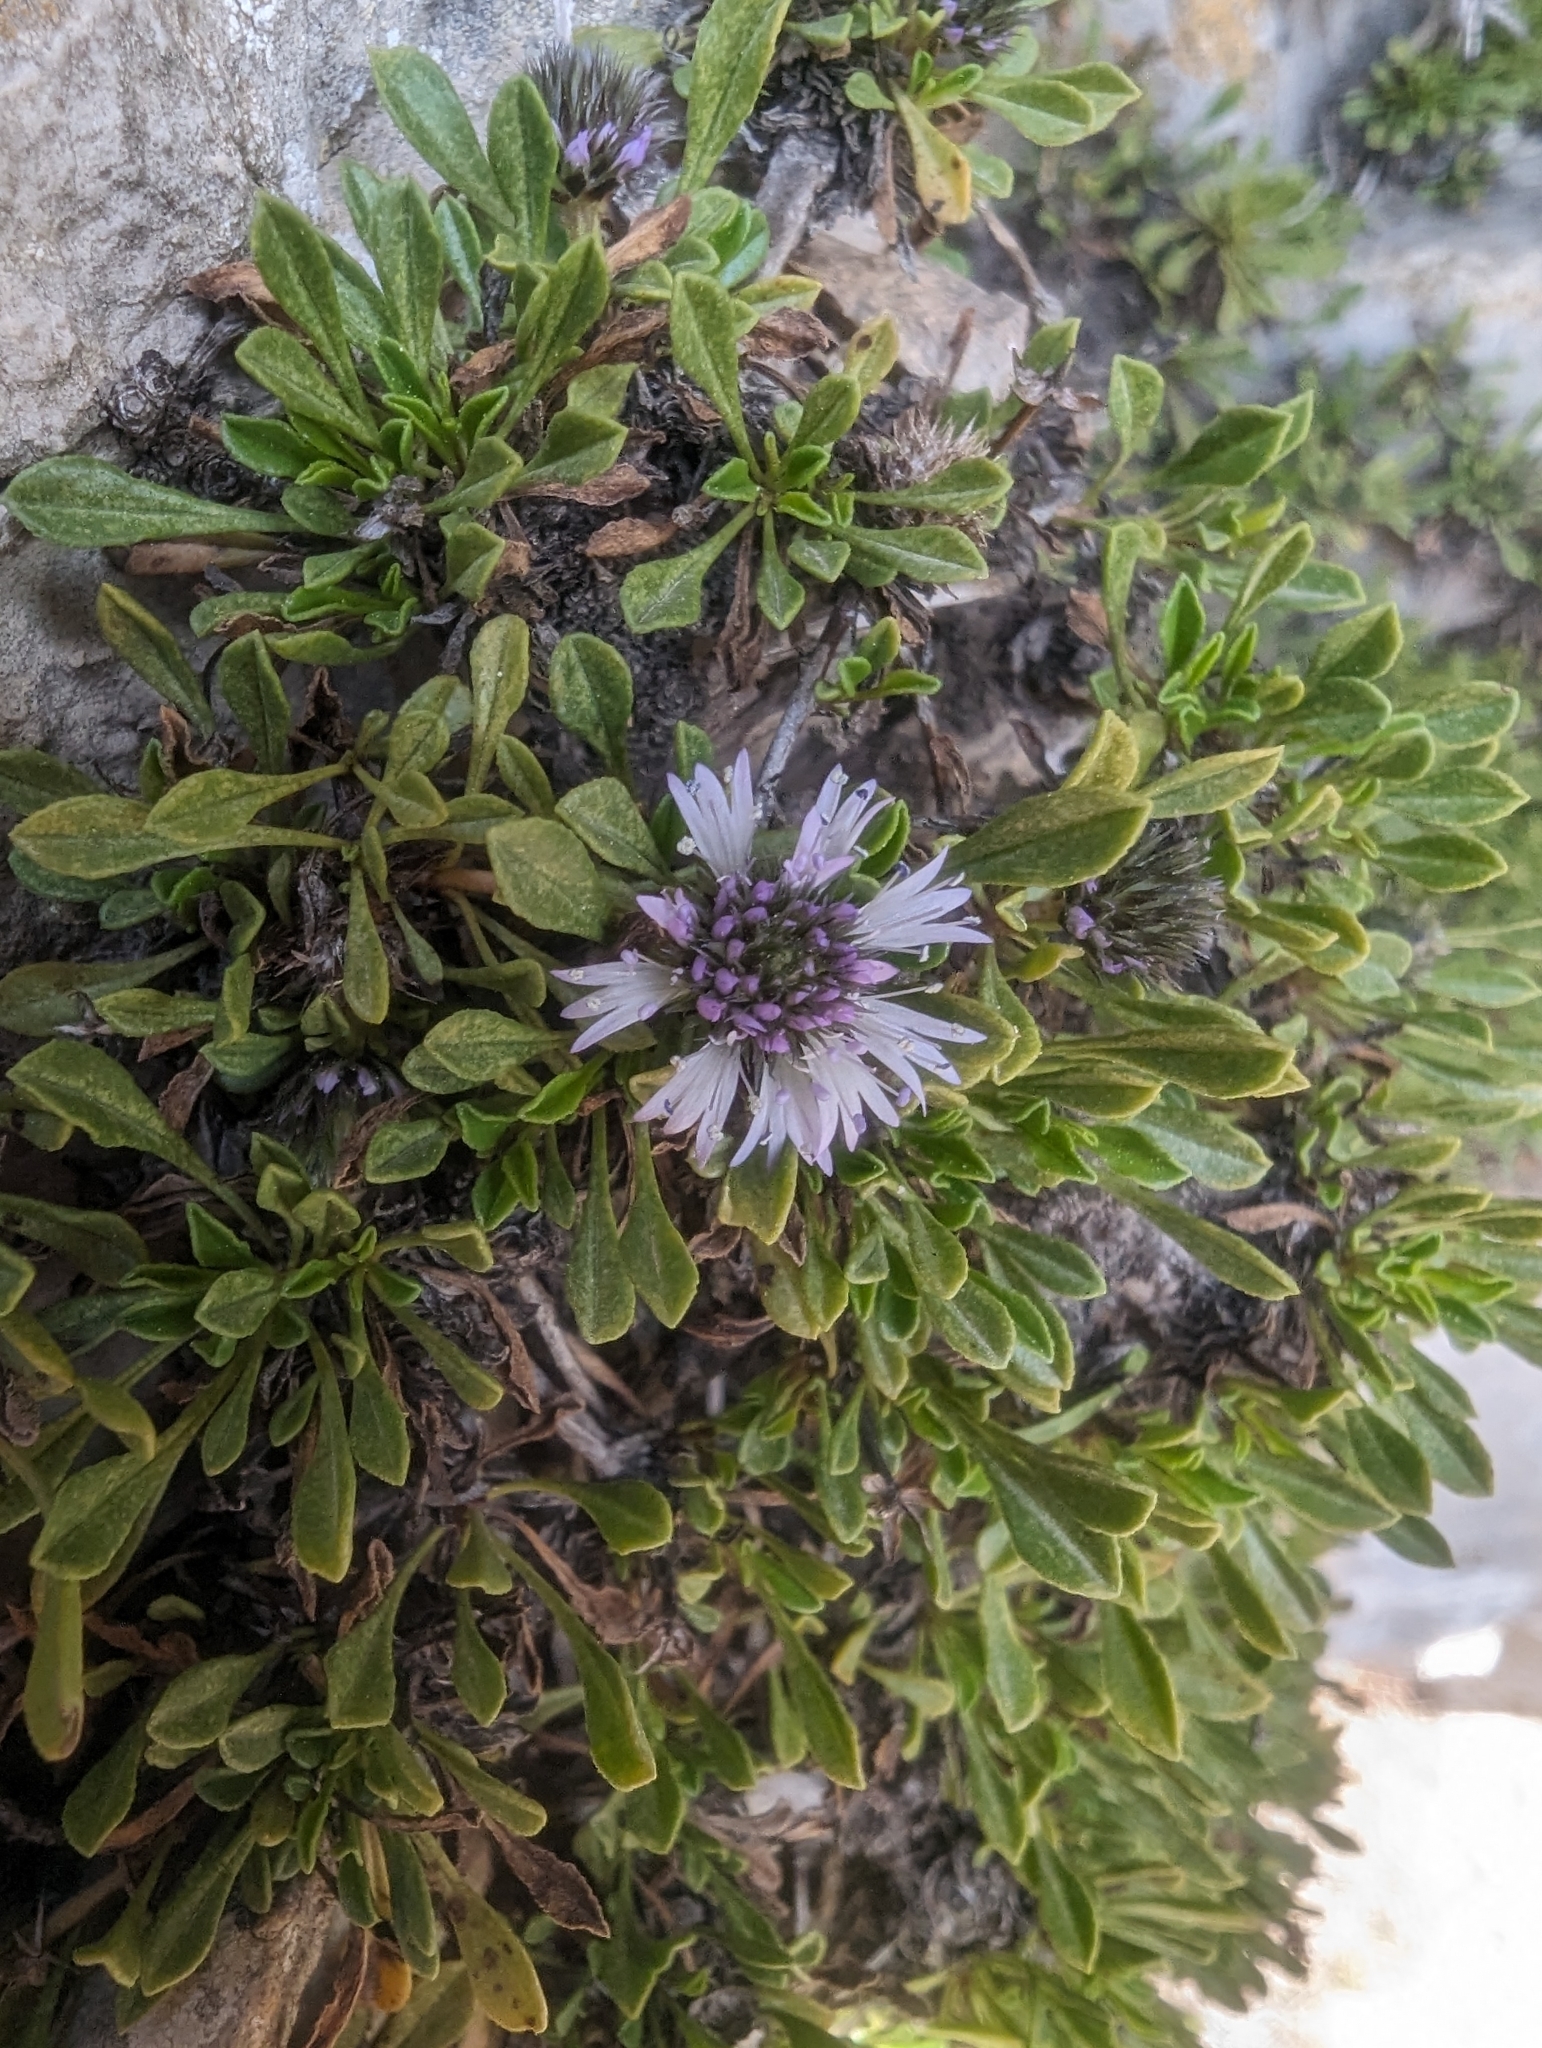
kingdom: Plantae
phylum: Tracheophyta
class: Magnoliopsida
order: Lamiales
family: Plantaginaceae
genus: Globularia
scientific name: Globularia repens
